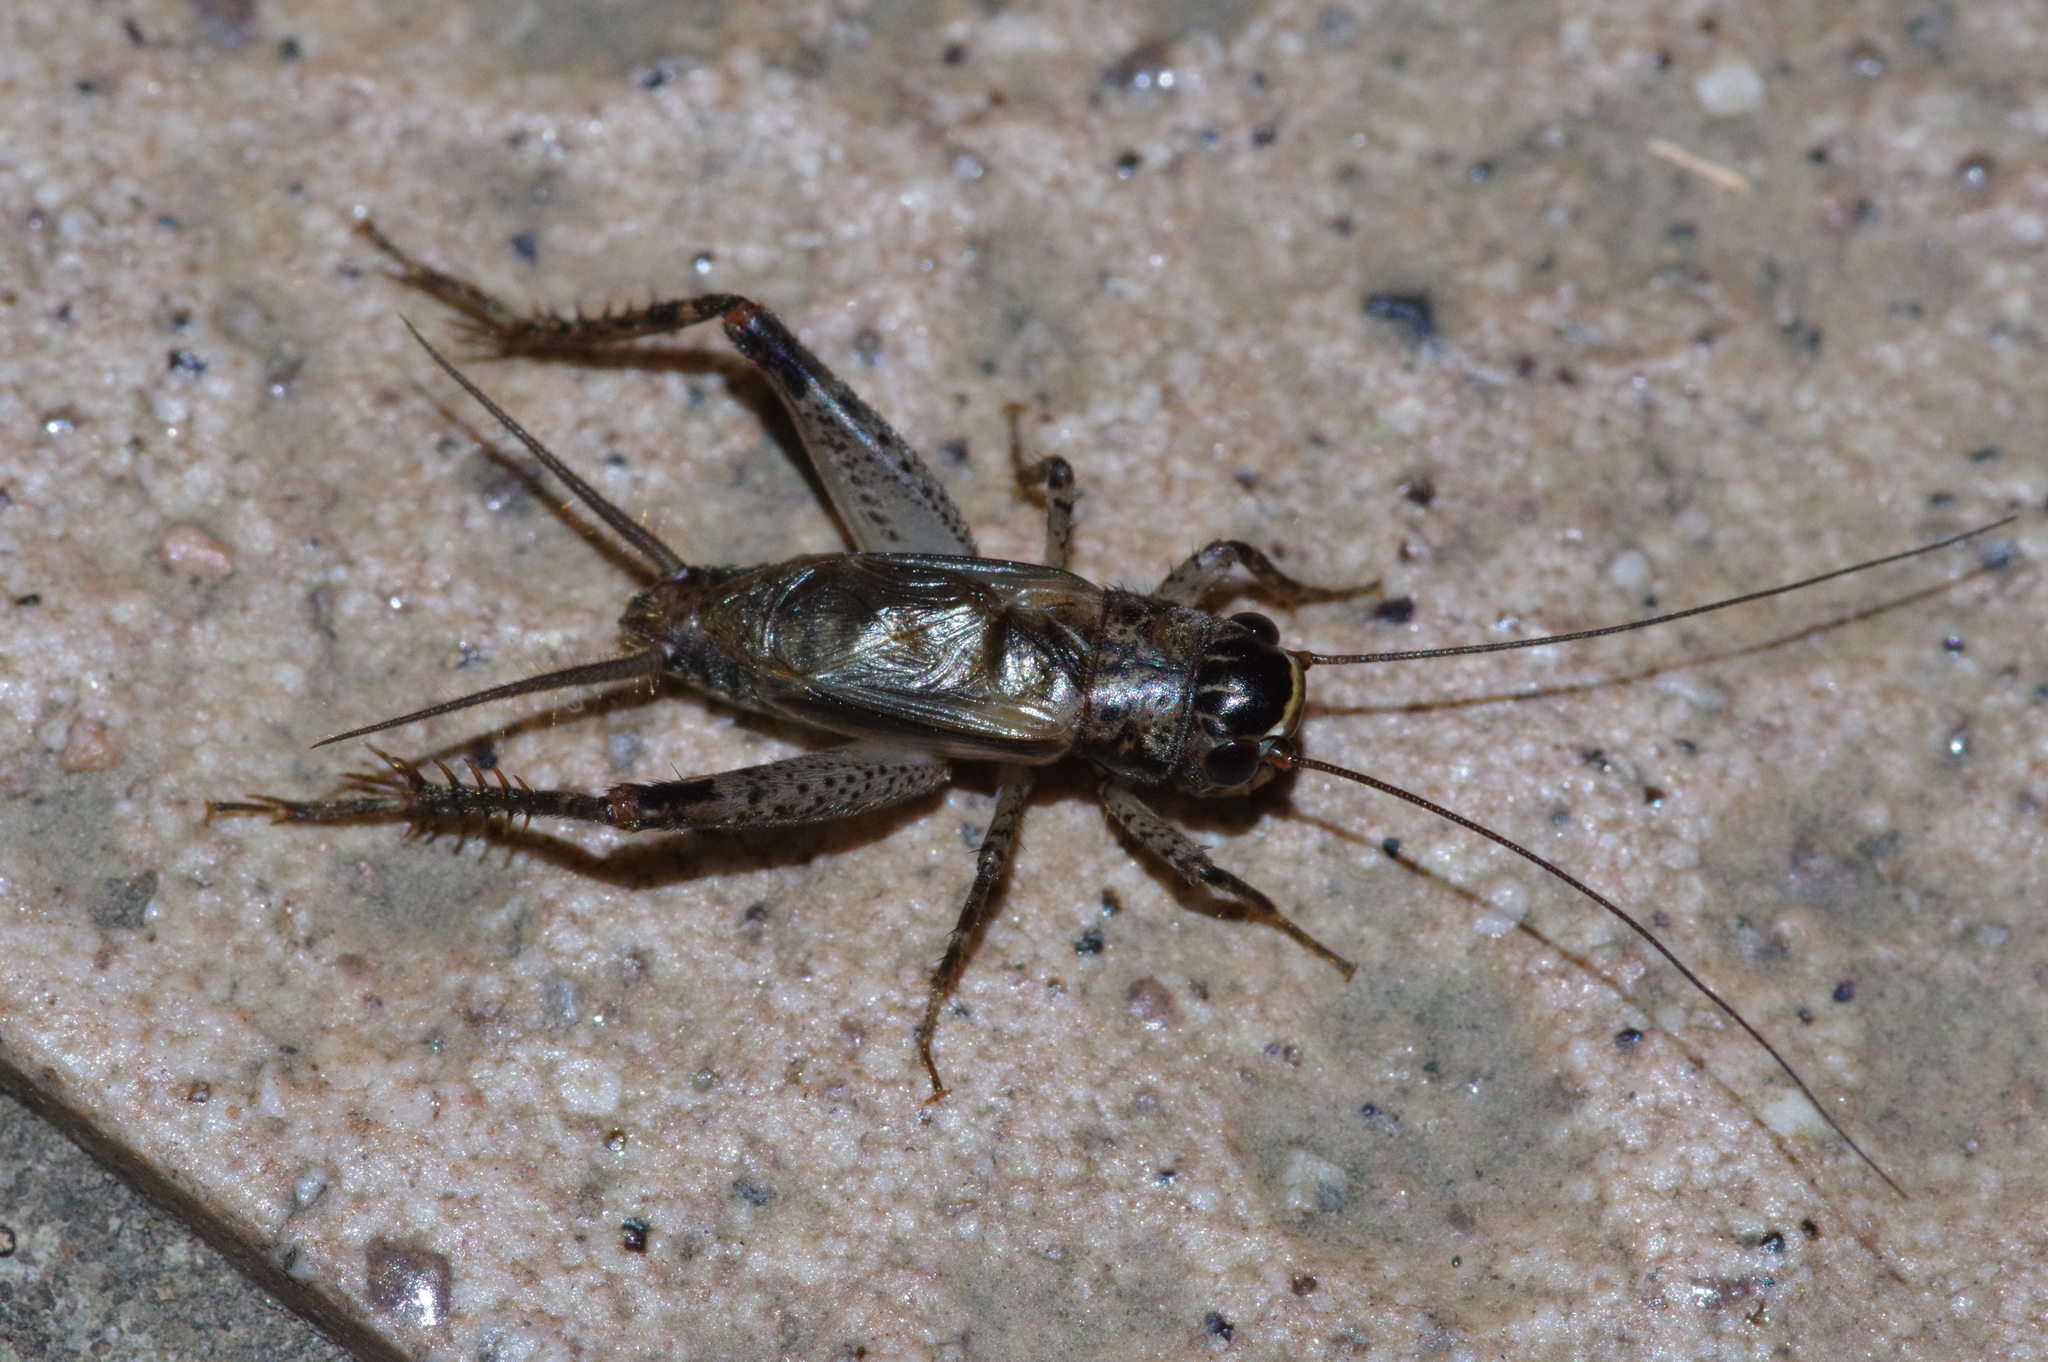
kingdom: Animalia
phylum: Arthropoda
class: Insecta
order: Orthoptera
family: Gryllidae
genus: Loxoblemmus
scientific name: Loxoblemmus equestris
